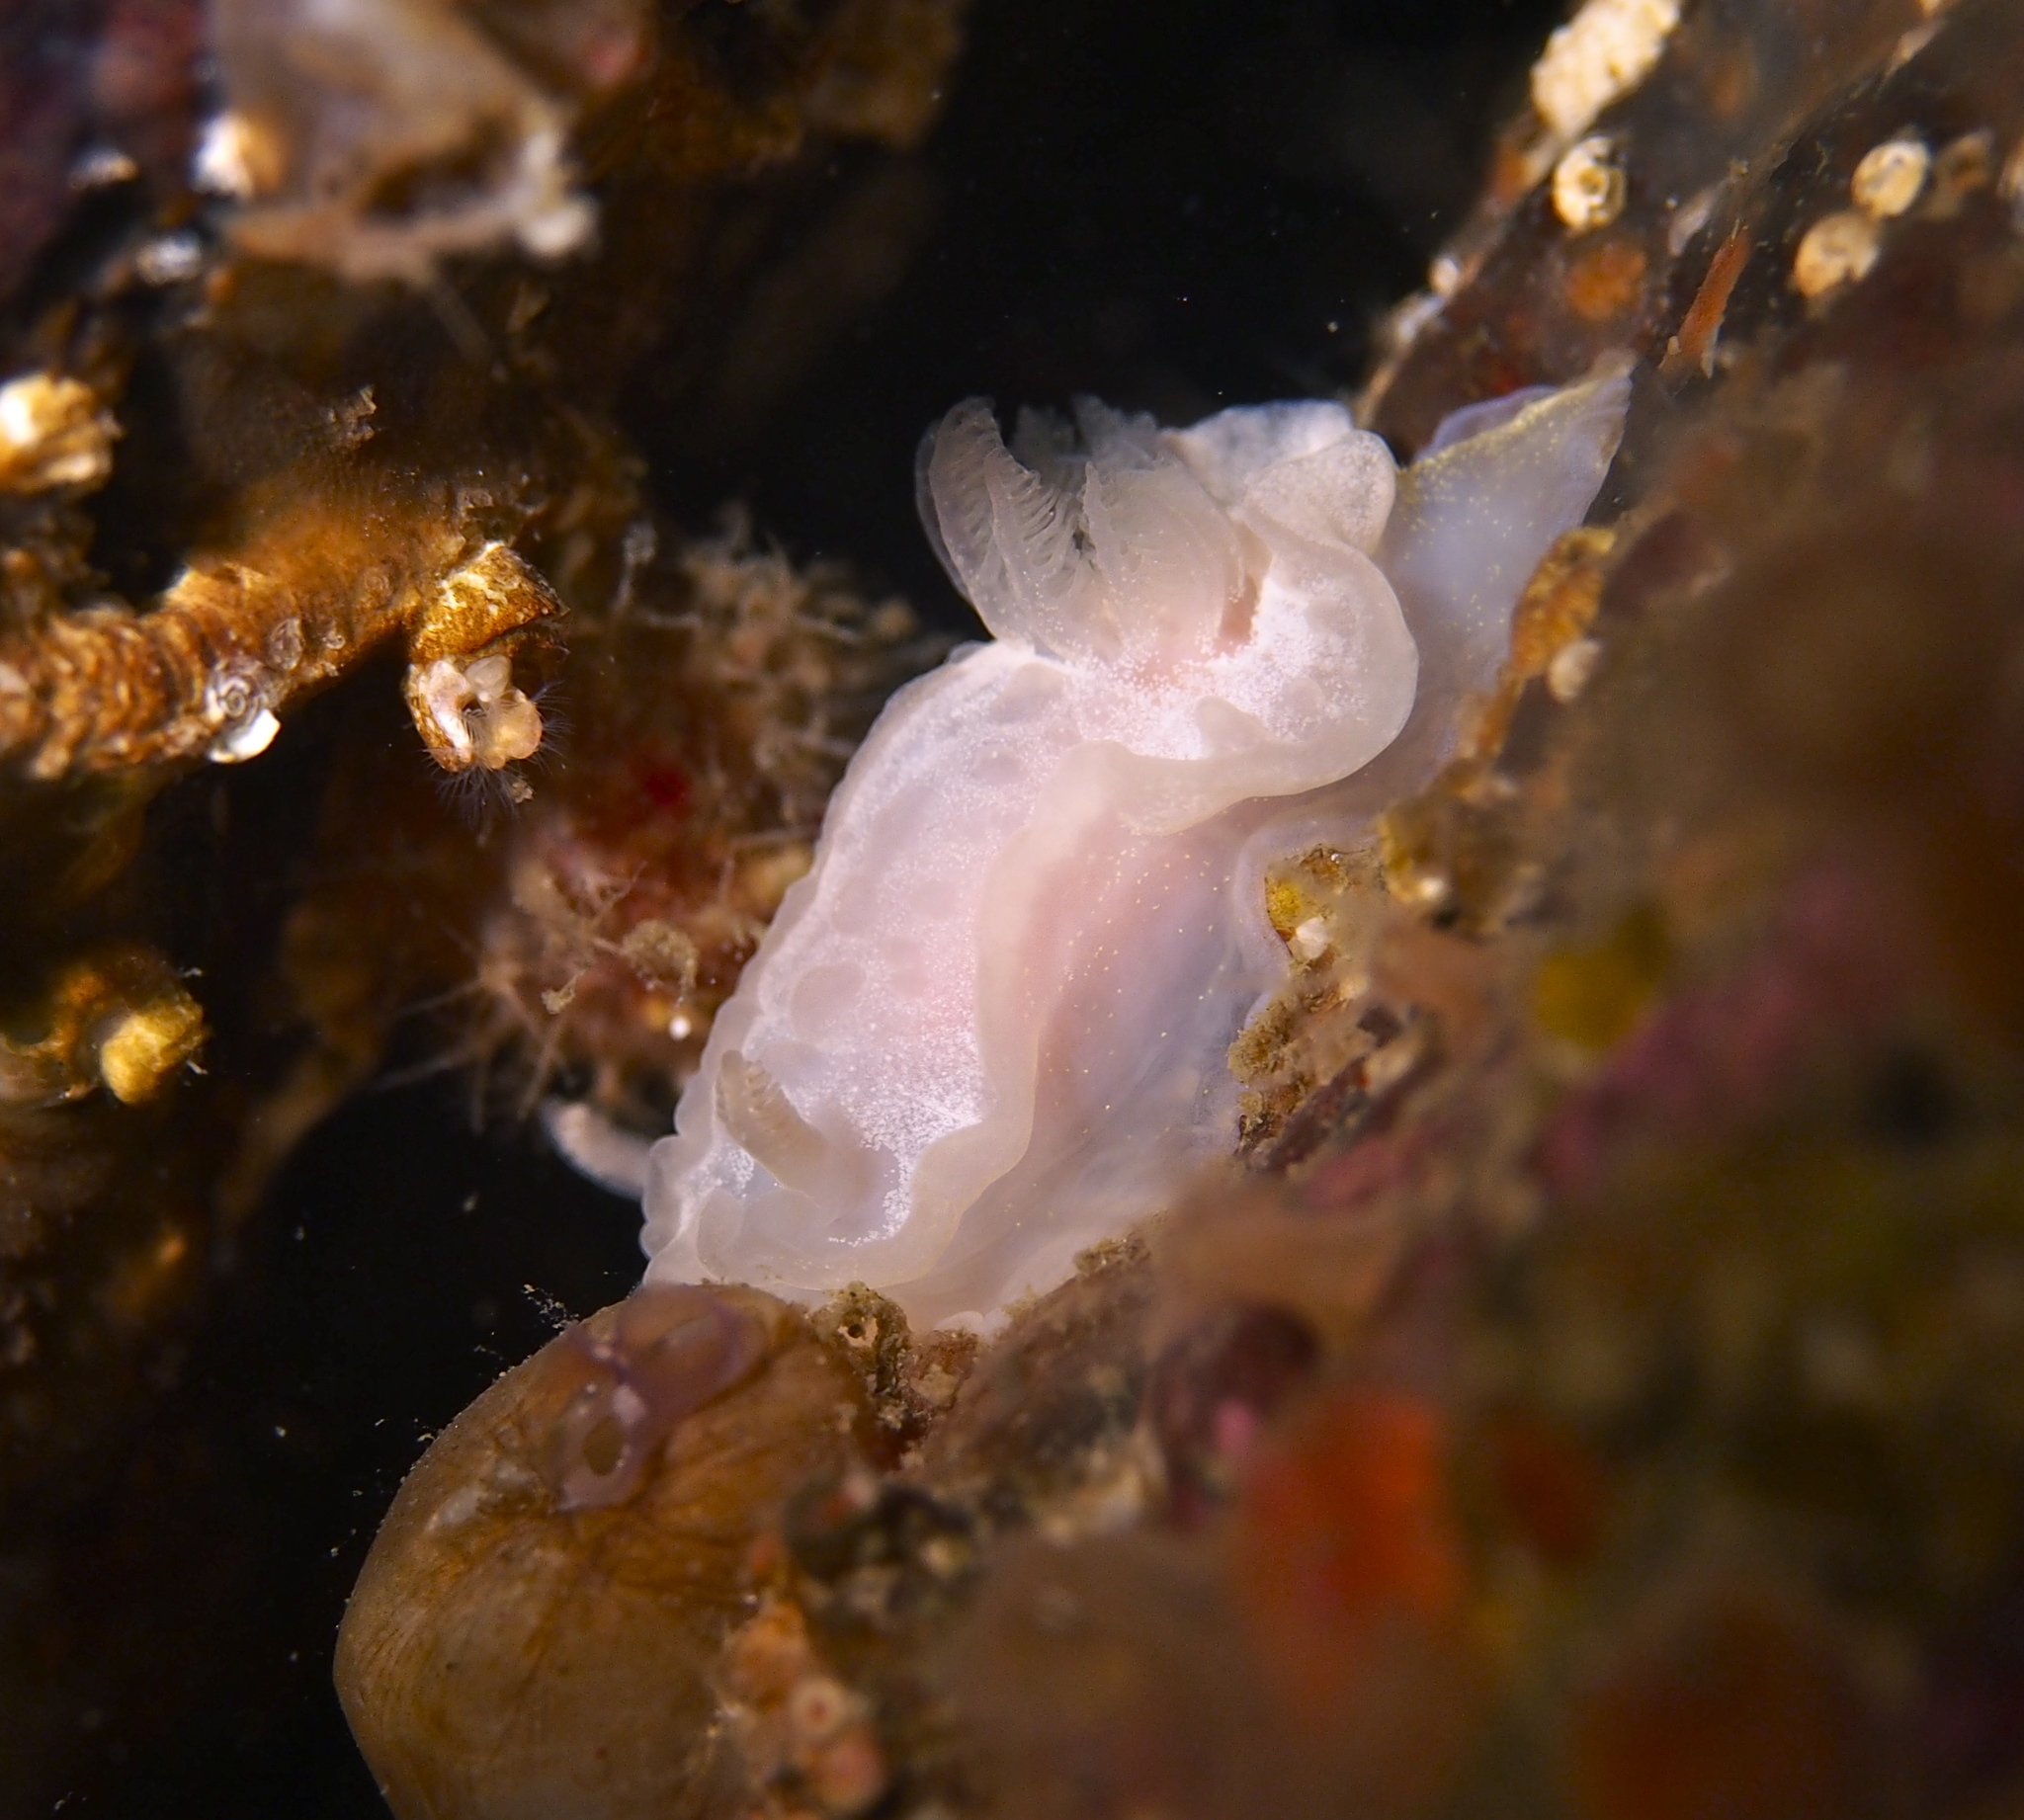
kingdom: Animalia
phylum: Mollusca
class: Gastropoda
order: Nudibranchia
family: Goniodorididae
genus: Okenia
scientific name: Okenia
